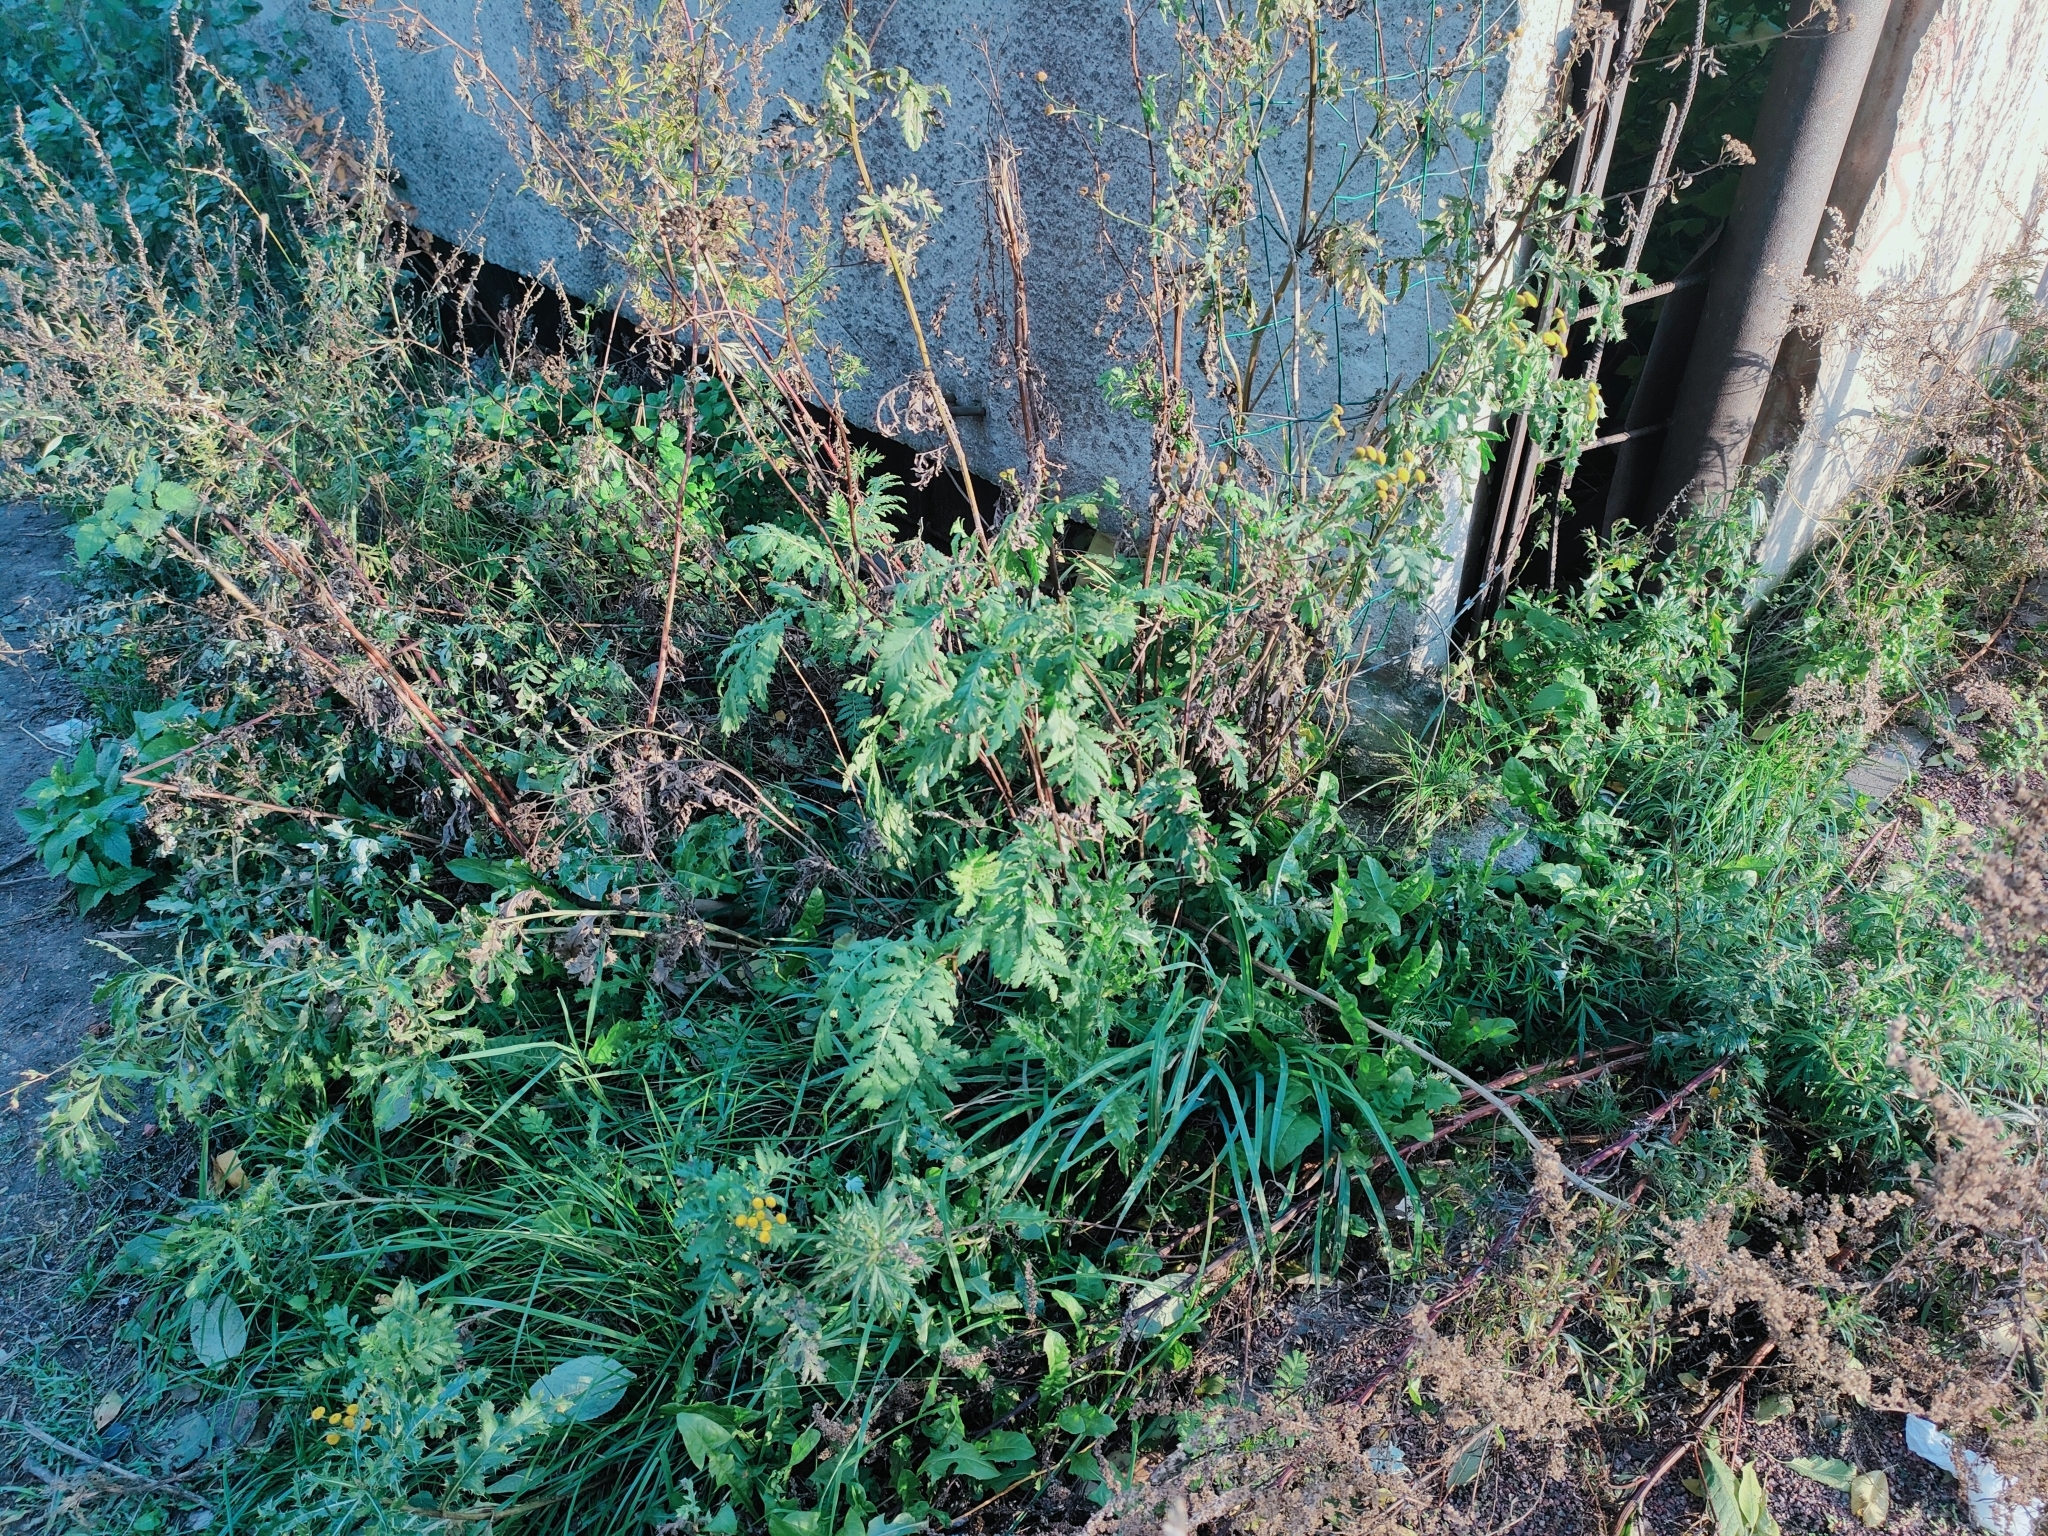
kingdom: Plantae
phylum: Tracheophyta
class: Magnoliopsida
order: Asterales
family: Asteraceae
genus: Tanacetum
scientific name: Tanacetum vulgare
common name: Common tansy
